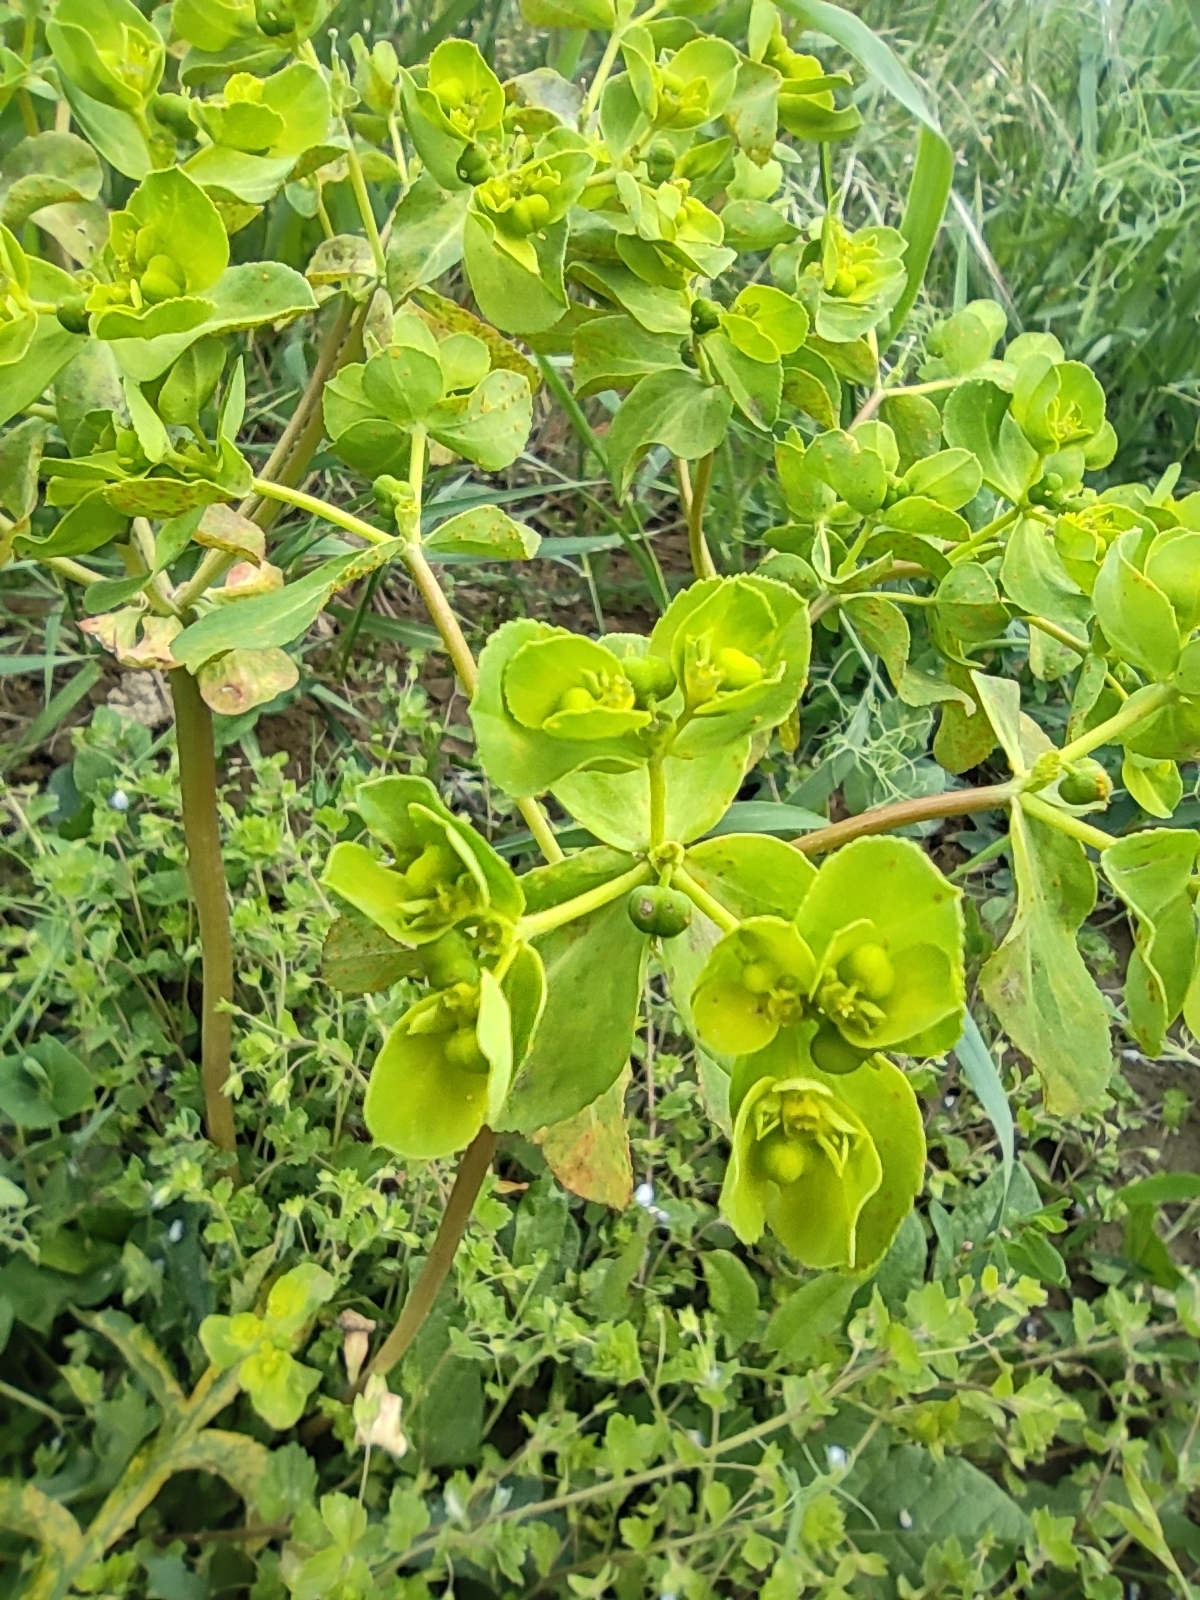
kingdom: Plantae
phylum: Tracheophyta
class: Magnoliopsida
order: Malpighiales
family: Euphorbiaceae
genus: Euphorbia
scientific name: Euphorbia helioscopia
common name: Sun spurge
